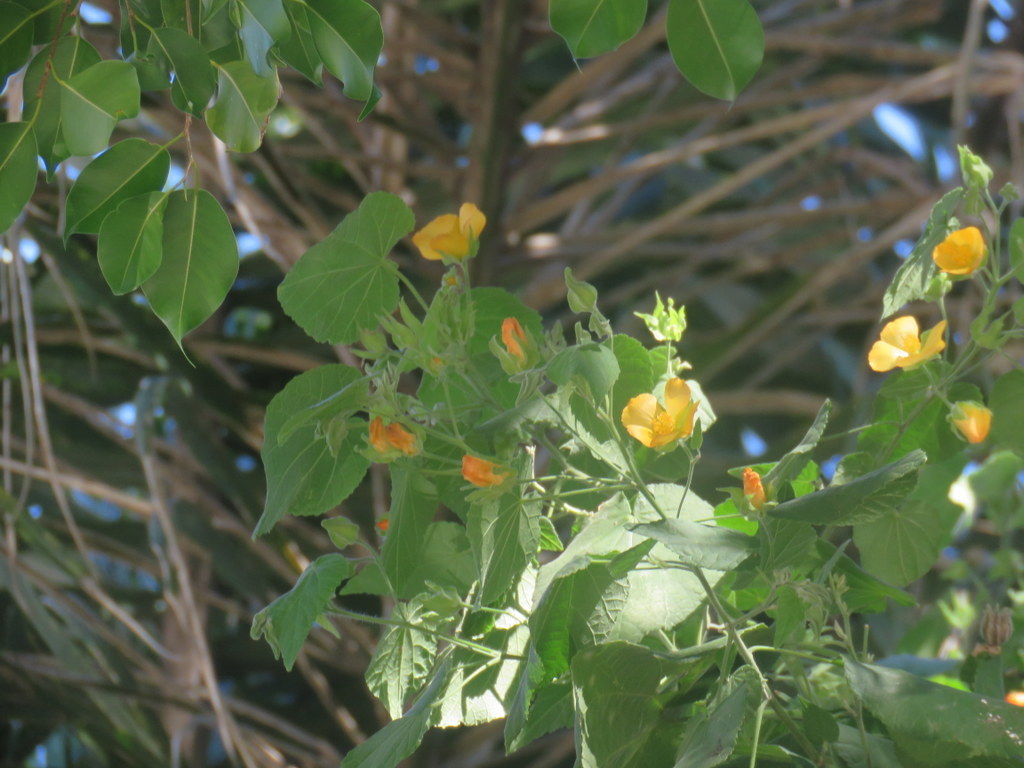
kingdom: Plantae
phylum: Tracheophyta
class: Magnoliopsida
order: Malvales
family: Malvaceae
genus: Abutilon
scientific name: Abutilon grandifolium
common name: Hairy abutilon
